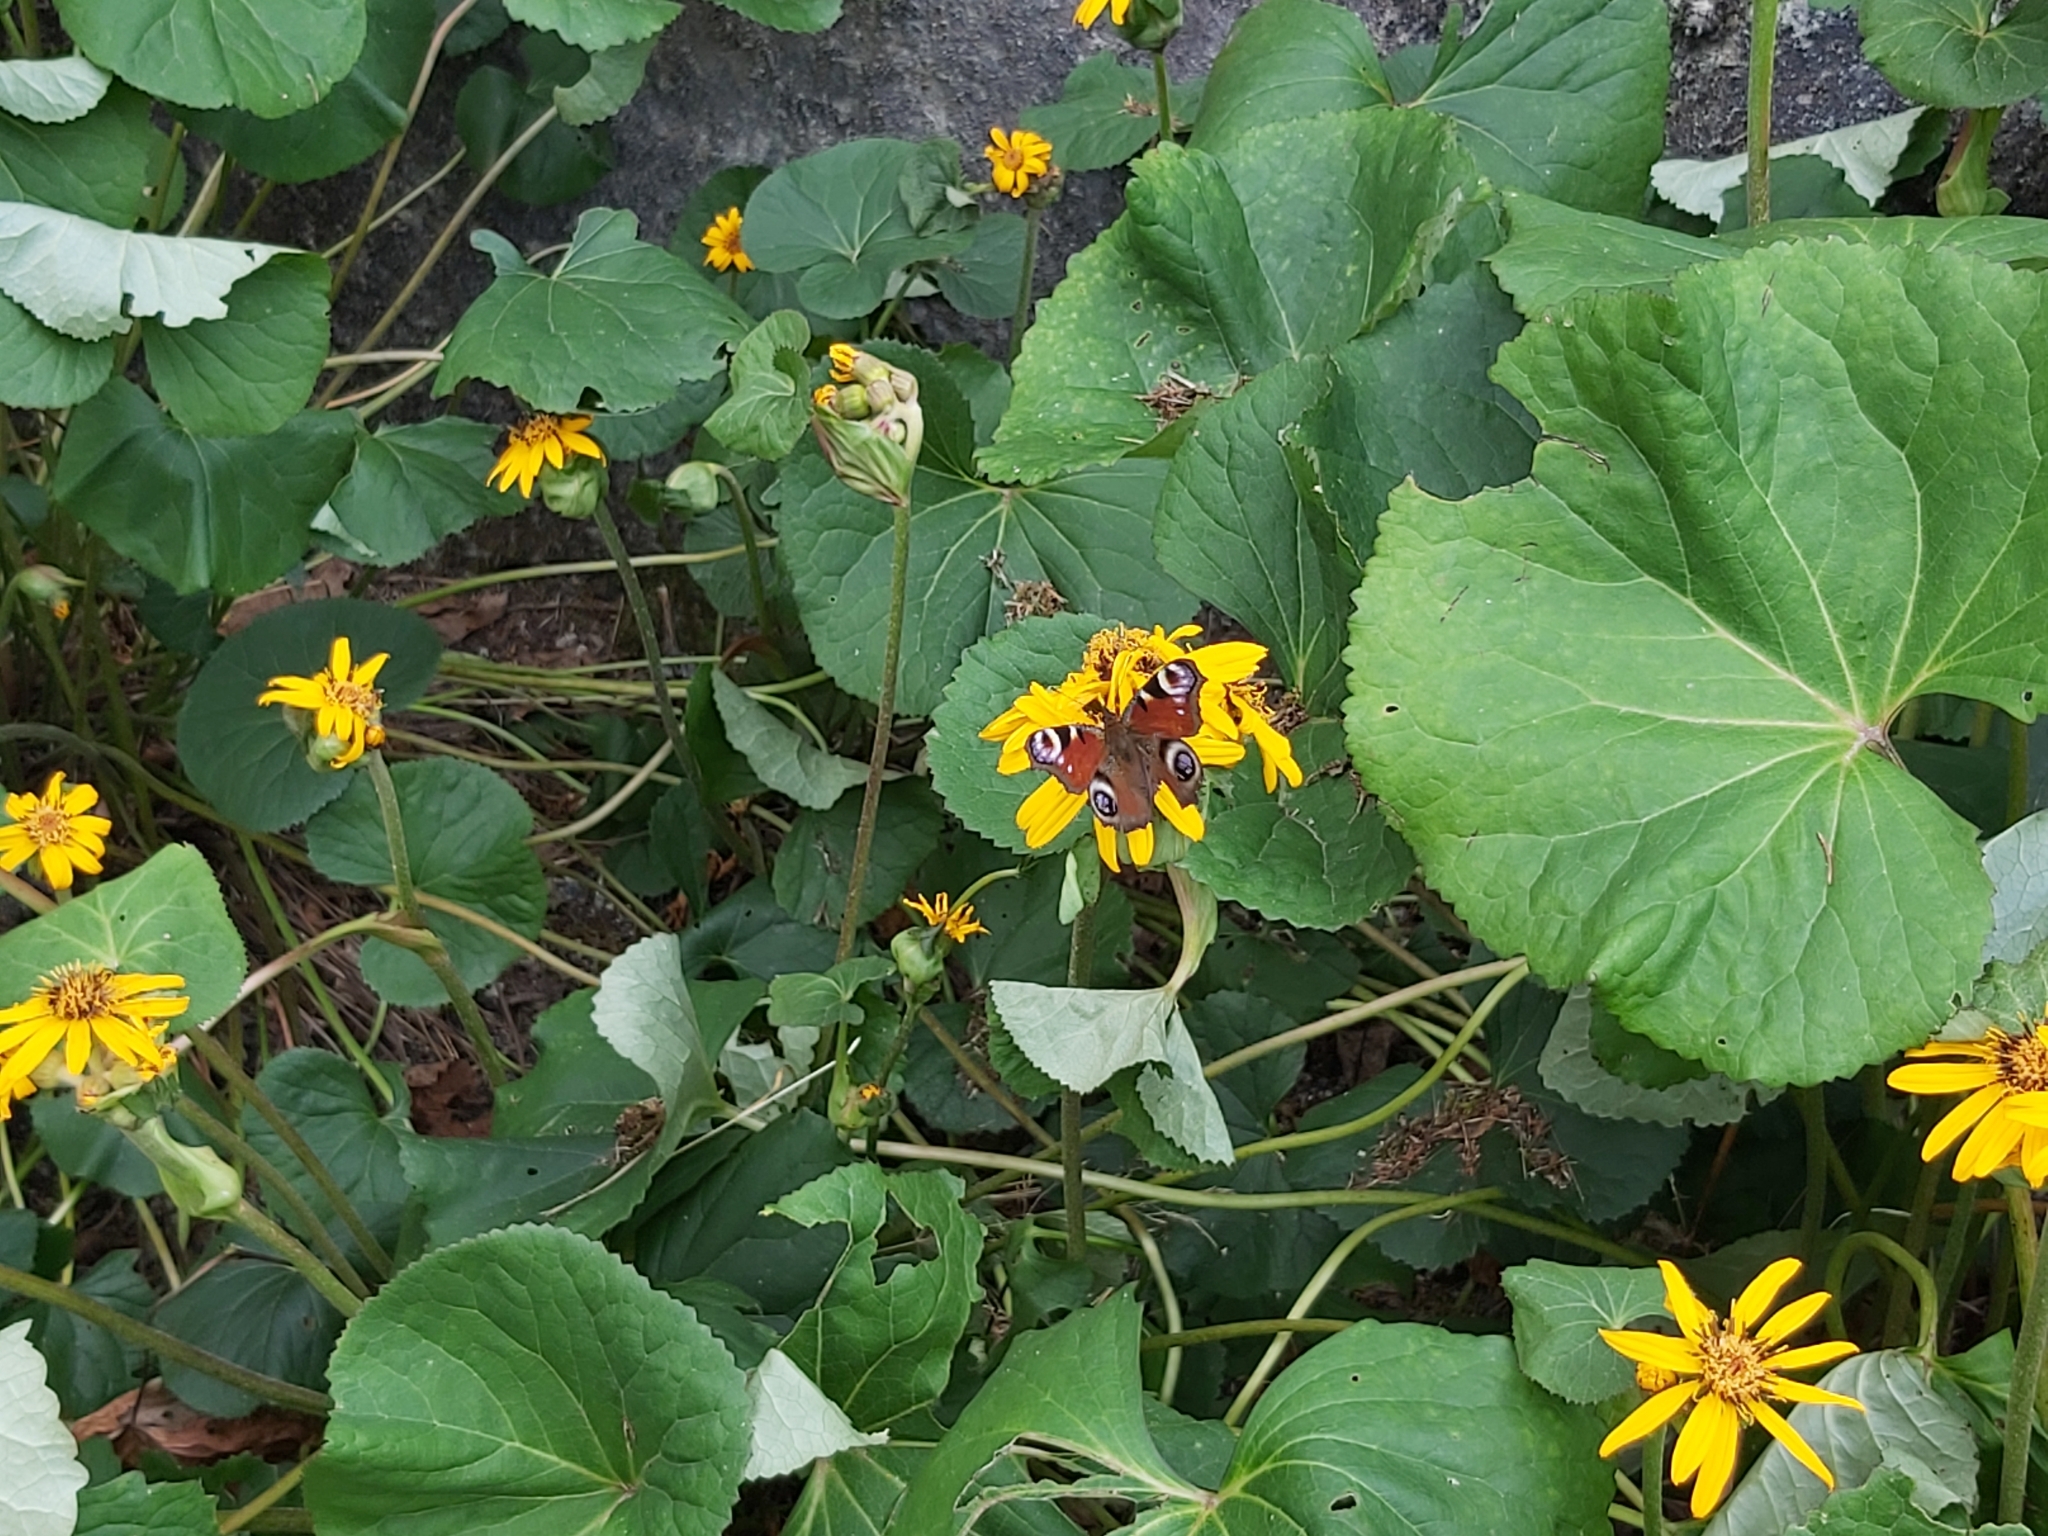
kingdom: Animalia
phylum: Arthropoda
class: Insecta
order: Lepidoptera
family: Nymphalidae
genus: Aglais
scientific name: Aglais io
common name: Peacock
